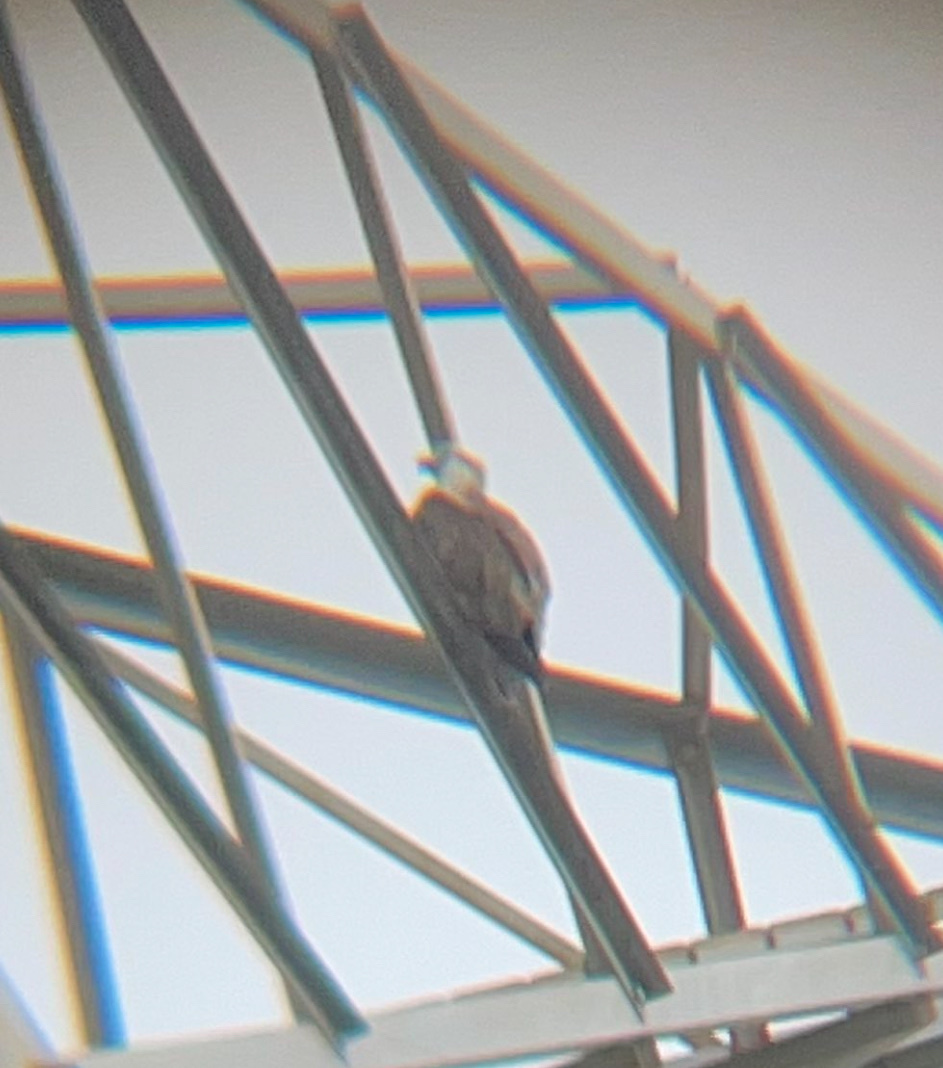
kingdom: Animalia
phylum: Chordata
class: Aves
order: Accipitriformes
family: Accipitridae
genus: Haliaeetus
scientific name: Haliaeetus leucogaster
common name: White-bellied sea eagle
